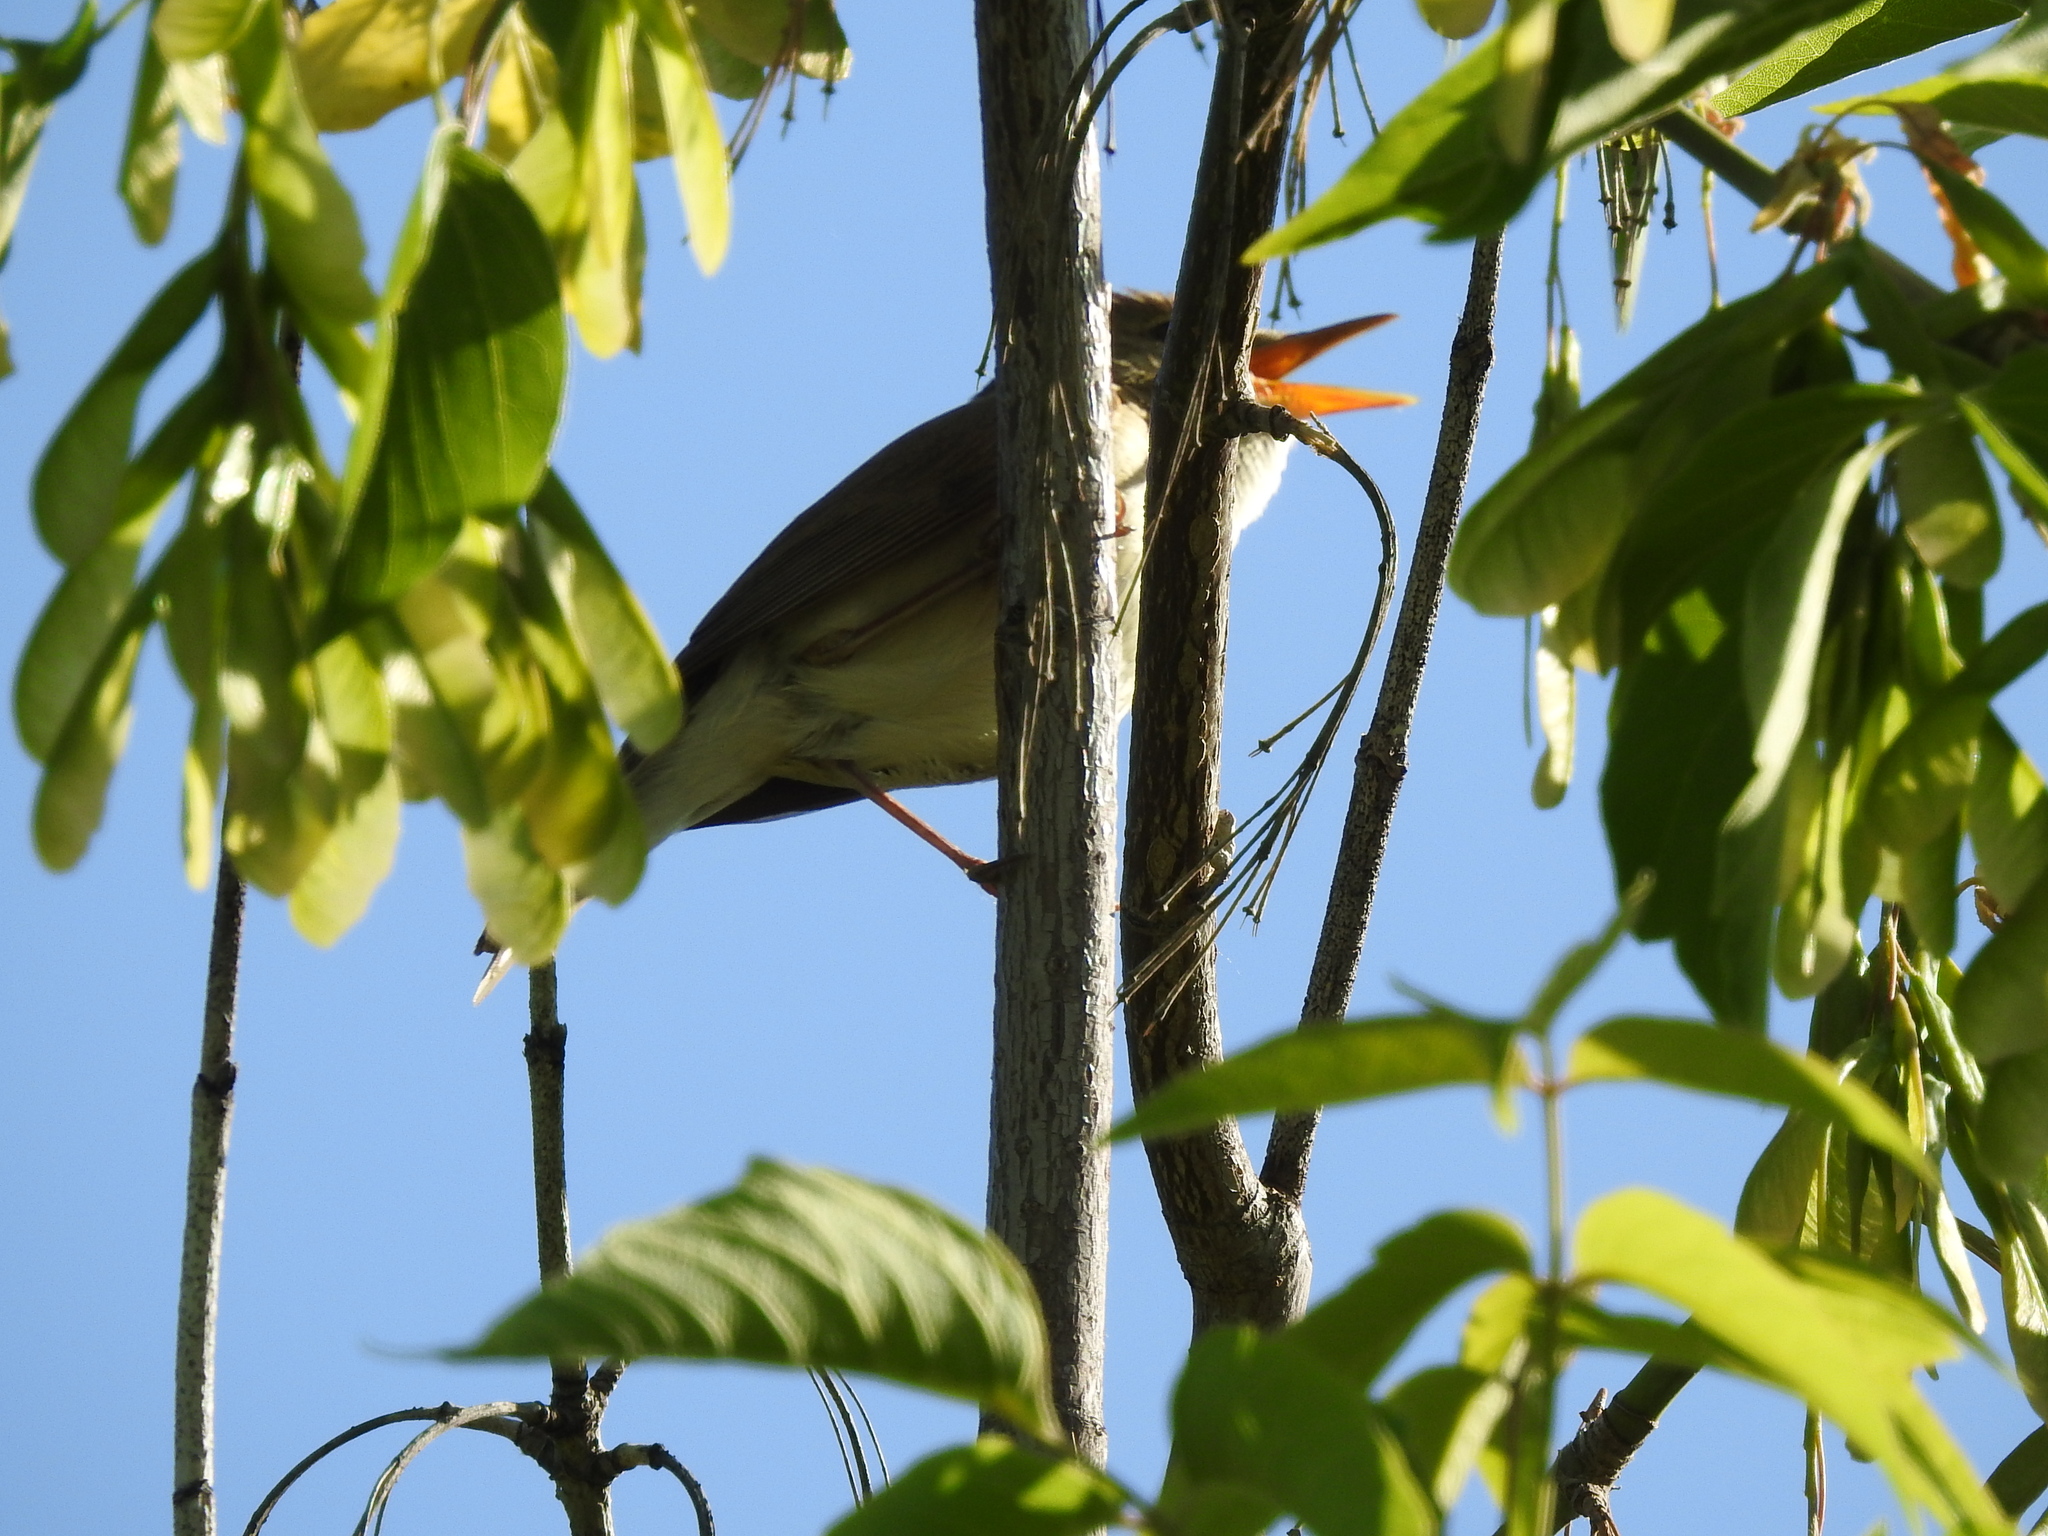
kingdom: Animalia
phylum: Chordata
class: Aves
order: Passeriformes
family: Acrocephalidae
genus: Acrocephalus
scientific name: Acrocephalus dumetorum
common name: Blyth's reed warbler
